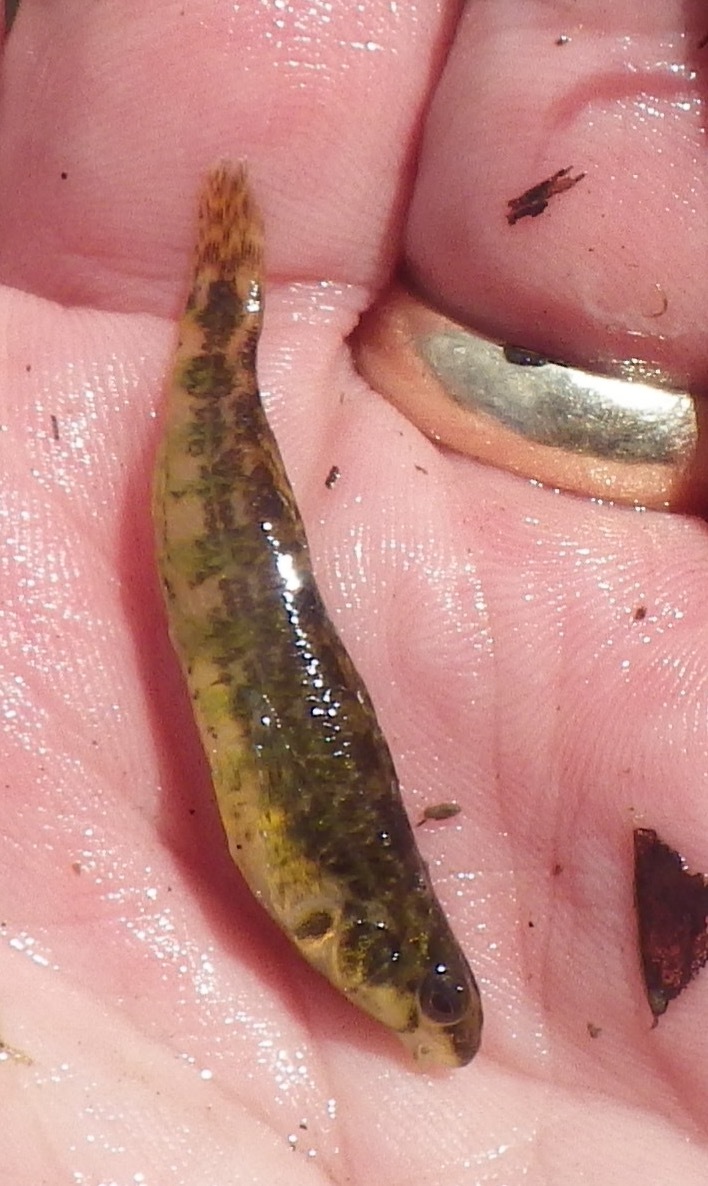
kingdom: Animalia
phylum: Chordata
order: Perciformes
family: Percidae
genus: Etheostoma
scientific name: Etheostoma zonale
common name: Banded darter
